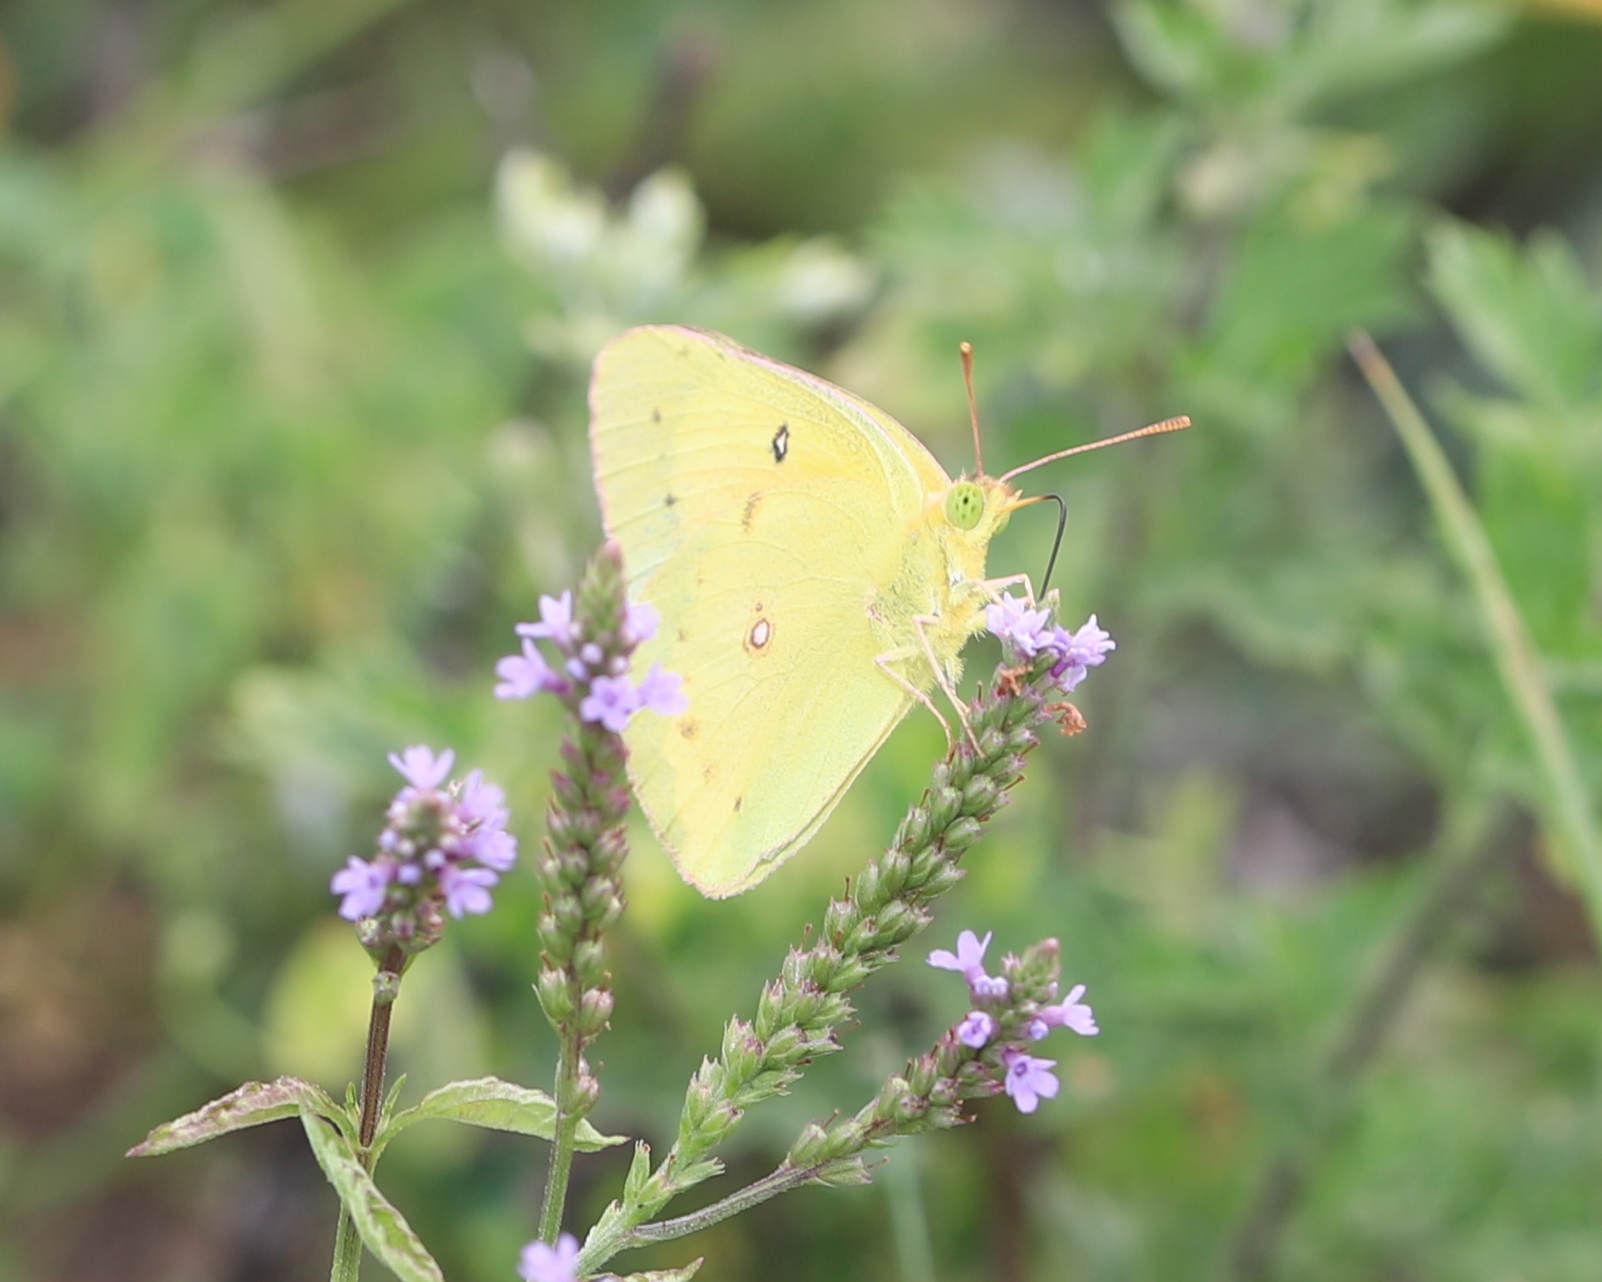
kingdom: Animalia
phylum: Arthropoda
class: Insecta
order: Lepidoptera
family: Pieridae
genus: Colias
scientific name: Colias eurytheme
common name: Alfalfa butterfly
